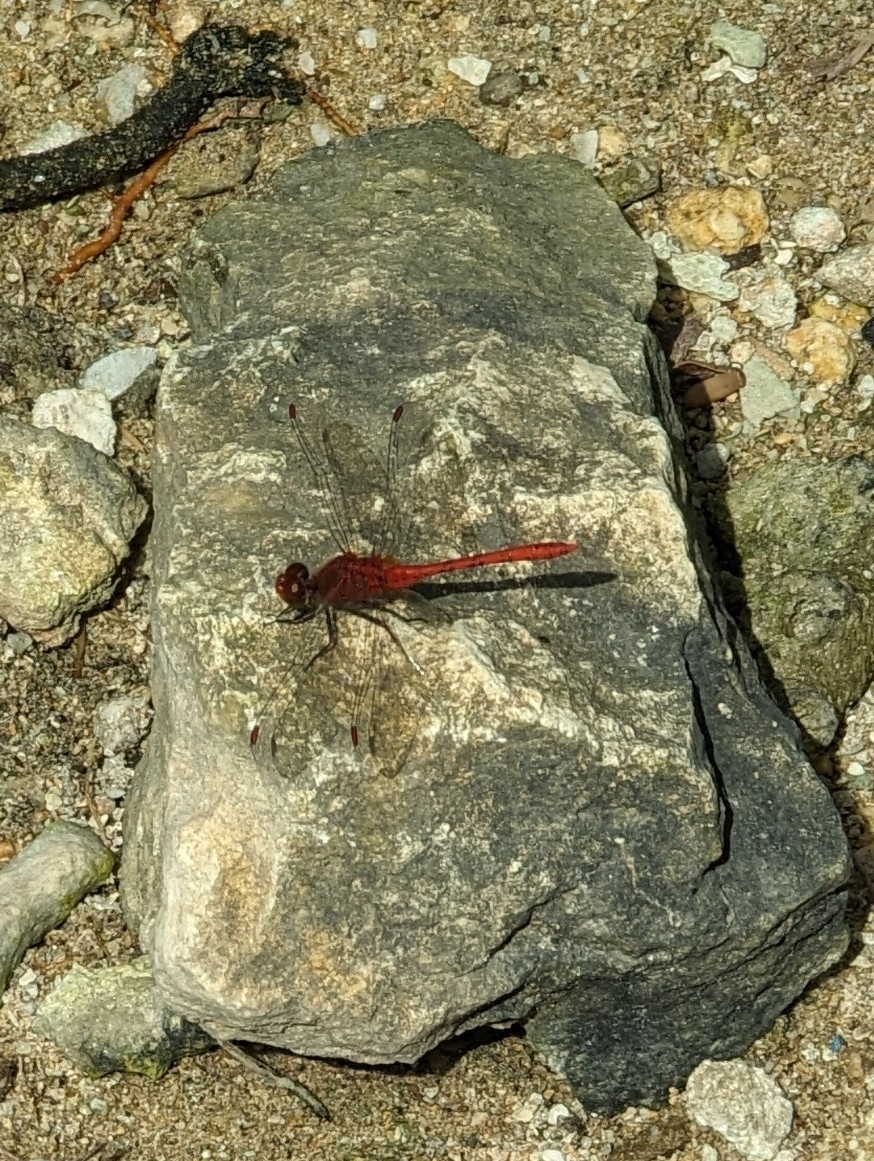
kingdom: Animalia
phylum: Arthropoda
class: Insecta
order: Odonata
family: Libellulidae
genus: Diplacodes
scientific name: Diplacodes bipunctata
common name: Red percher dragonfly
